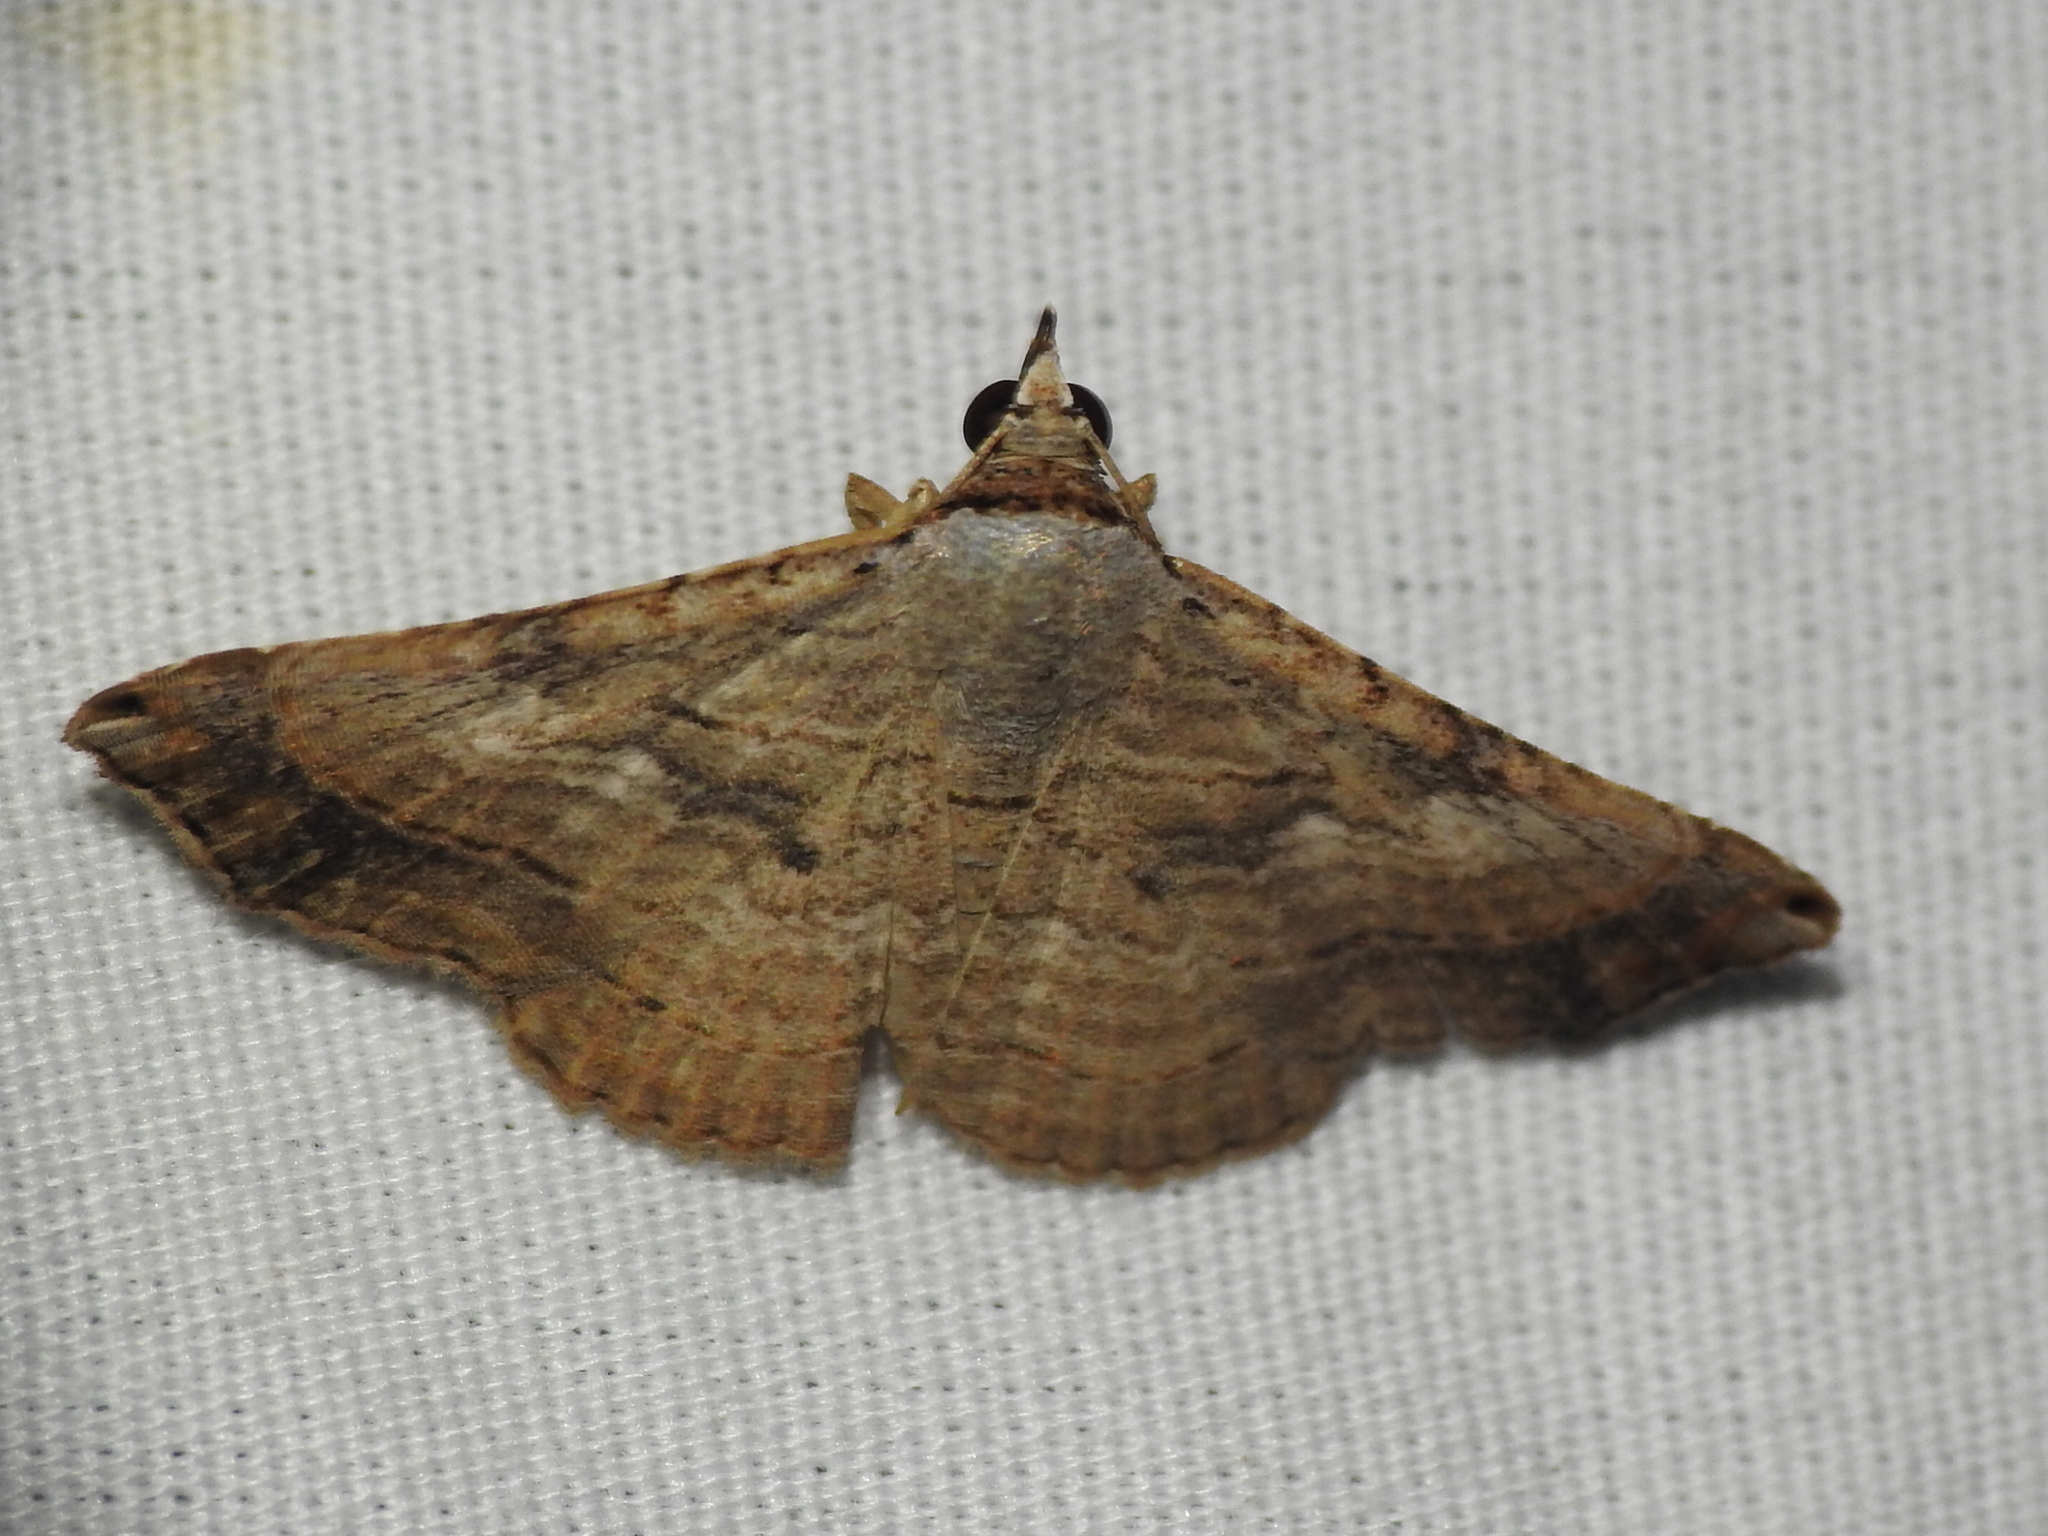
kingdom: Animalia
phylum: Arthropoda
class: Insecta
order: Lepidoptera
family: Erebidae
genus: Tyrissa
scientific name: Tyrissa multilinea
